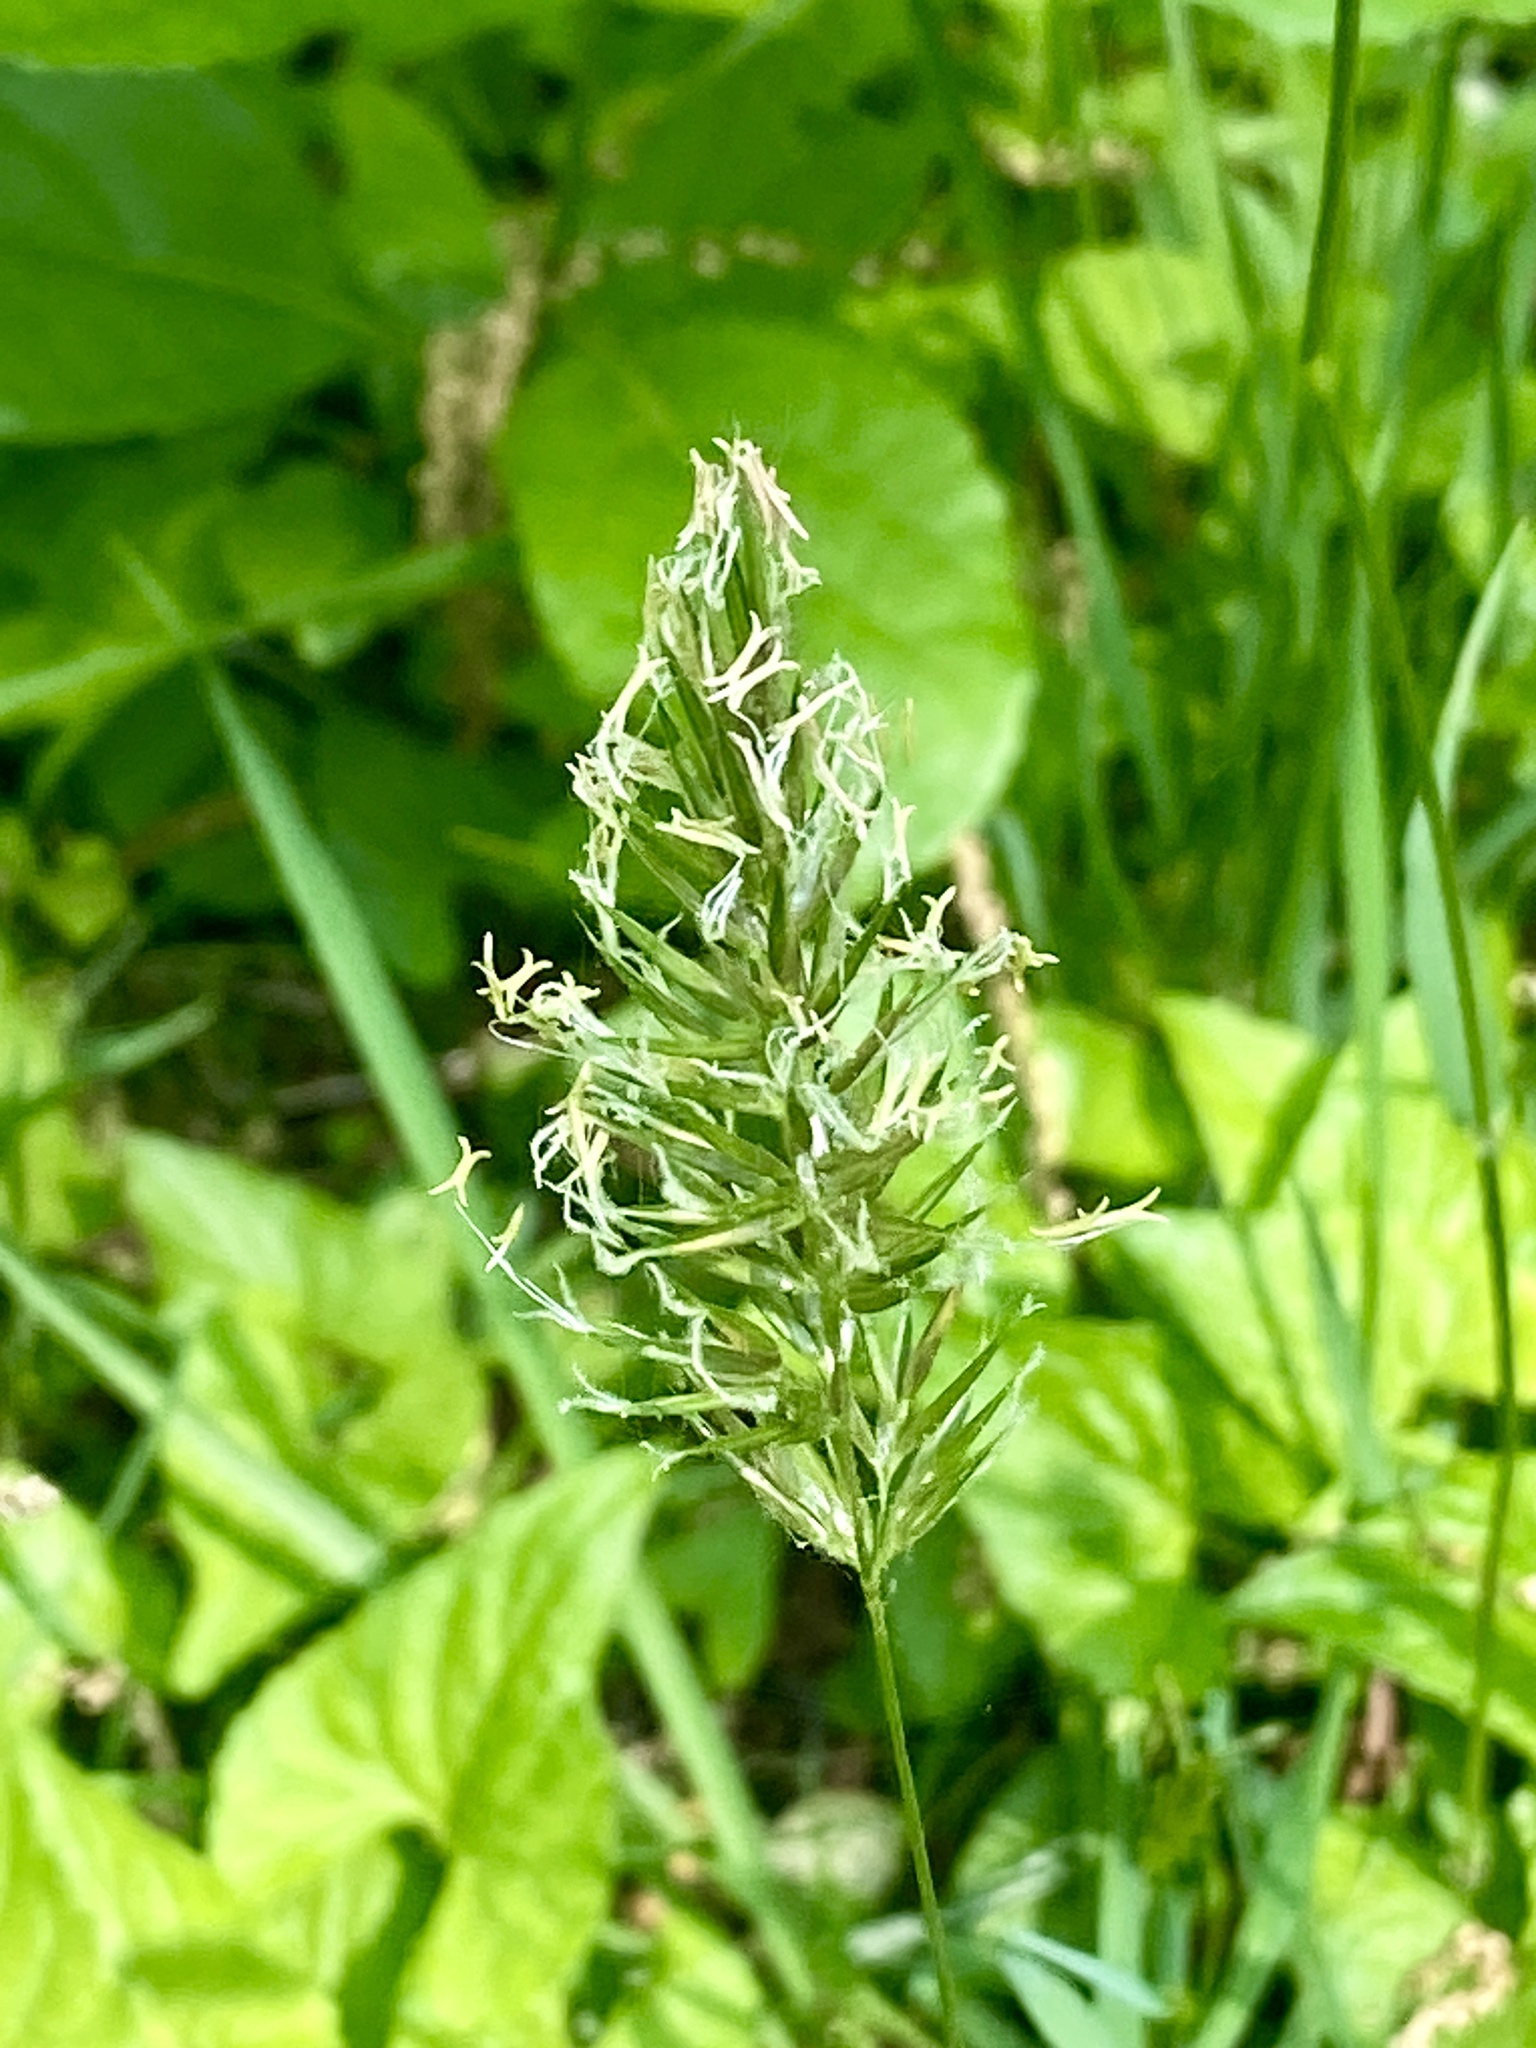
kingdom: Plantae
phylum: Tracheophyta
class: Liliopsida
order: Poales
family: Poaceae
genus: Anthoxanthum
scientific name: Anthoxanthum odoratum
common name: Sweet vernalgrass
